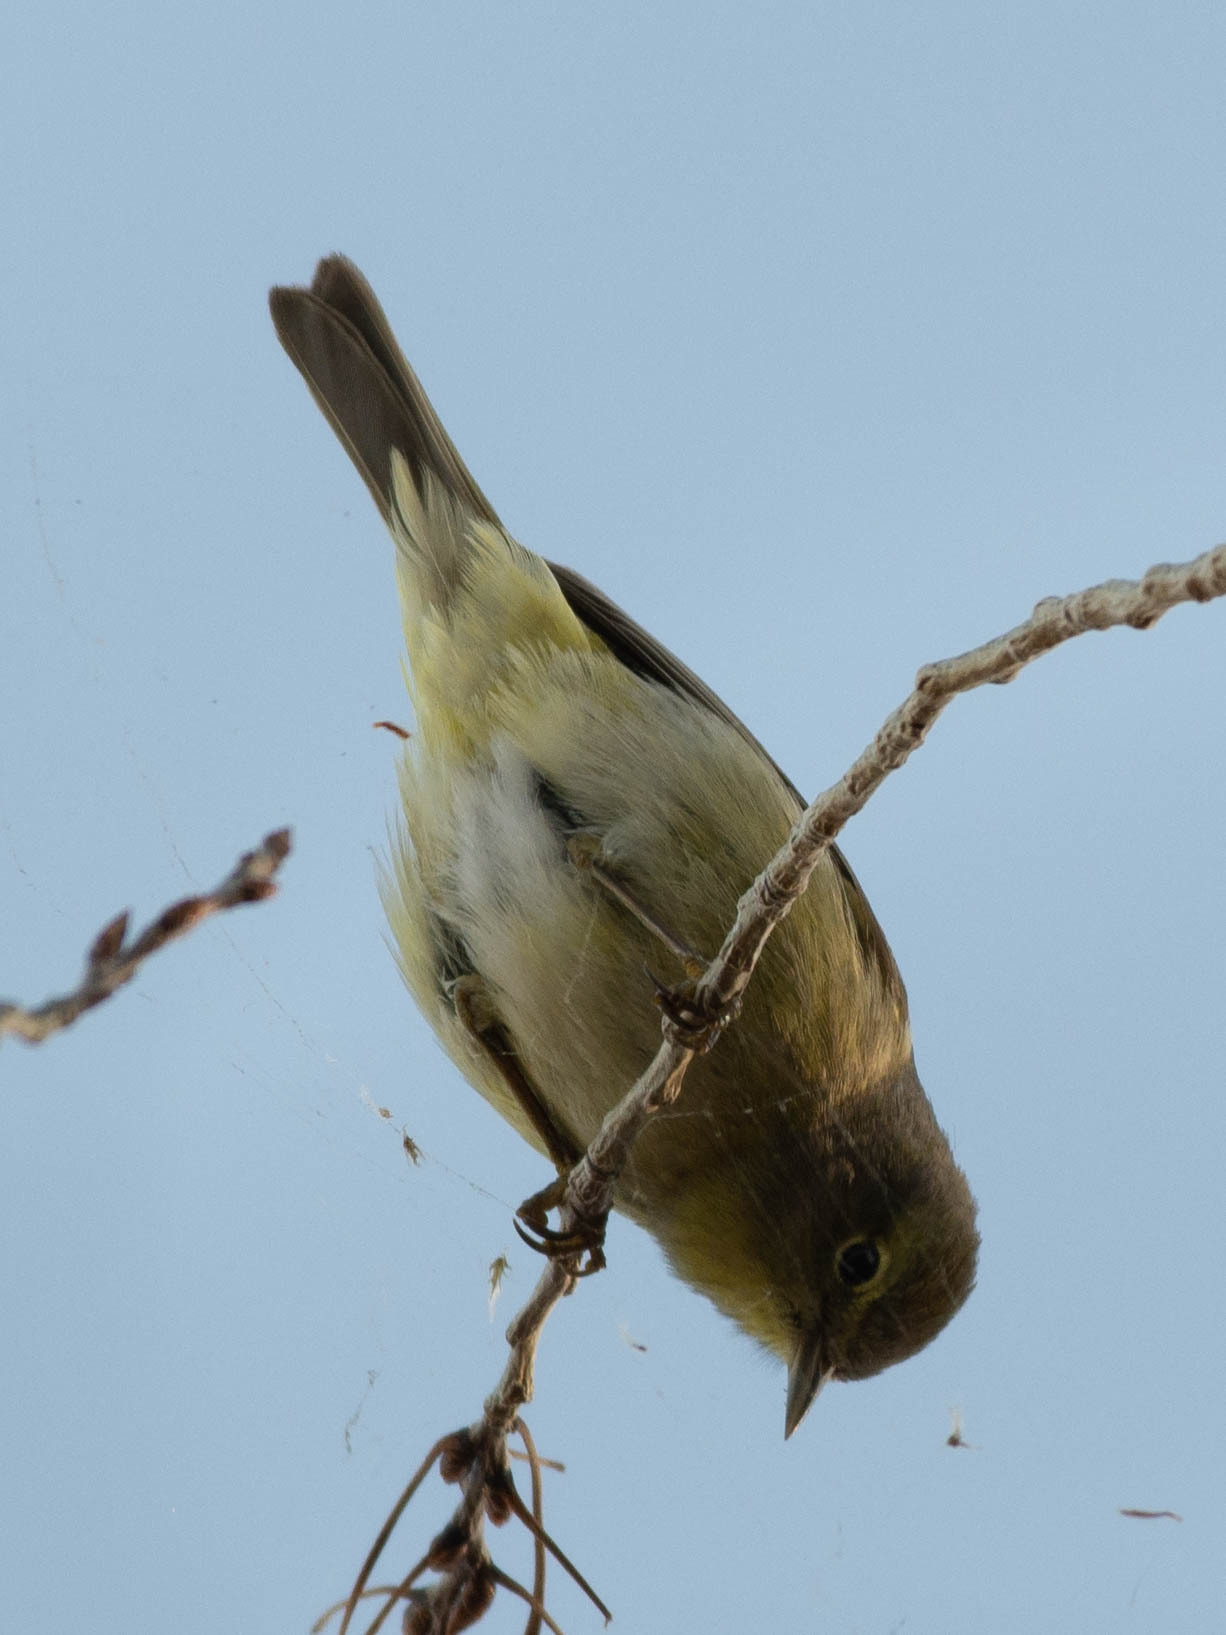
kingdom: Animalia
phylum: Chordata
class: Aves
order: Passeriformes
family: Parulidae
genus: Leiothlypis
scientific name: Leiothlypis celata
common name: Orange-crowned warbler
